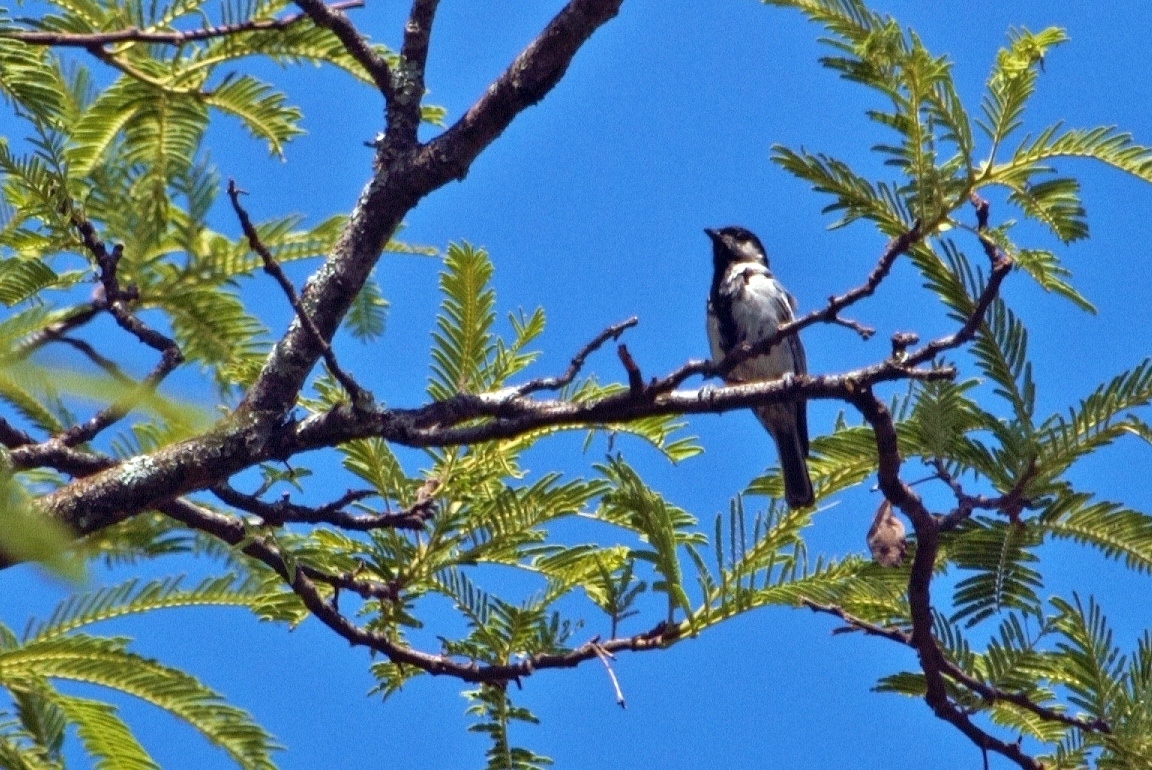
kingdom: Animalia
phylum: Chordata
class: Aves
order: Passeriformes
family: Paridae
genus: Parus
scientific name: Parus griseiventris
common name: Miombo tit
